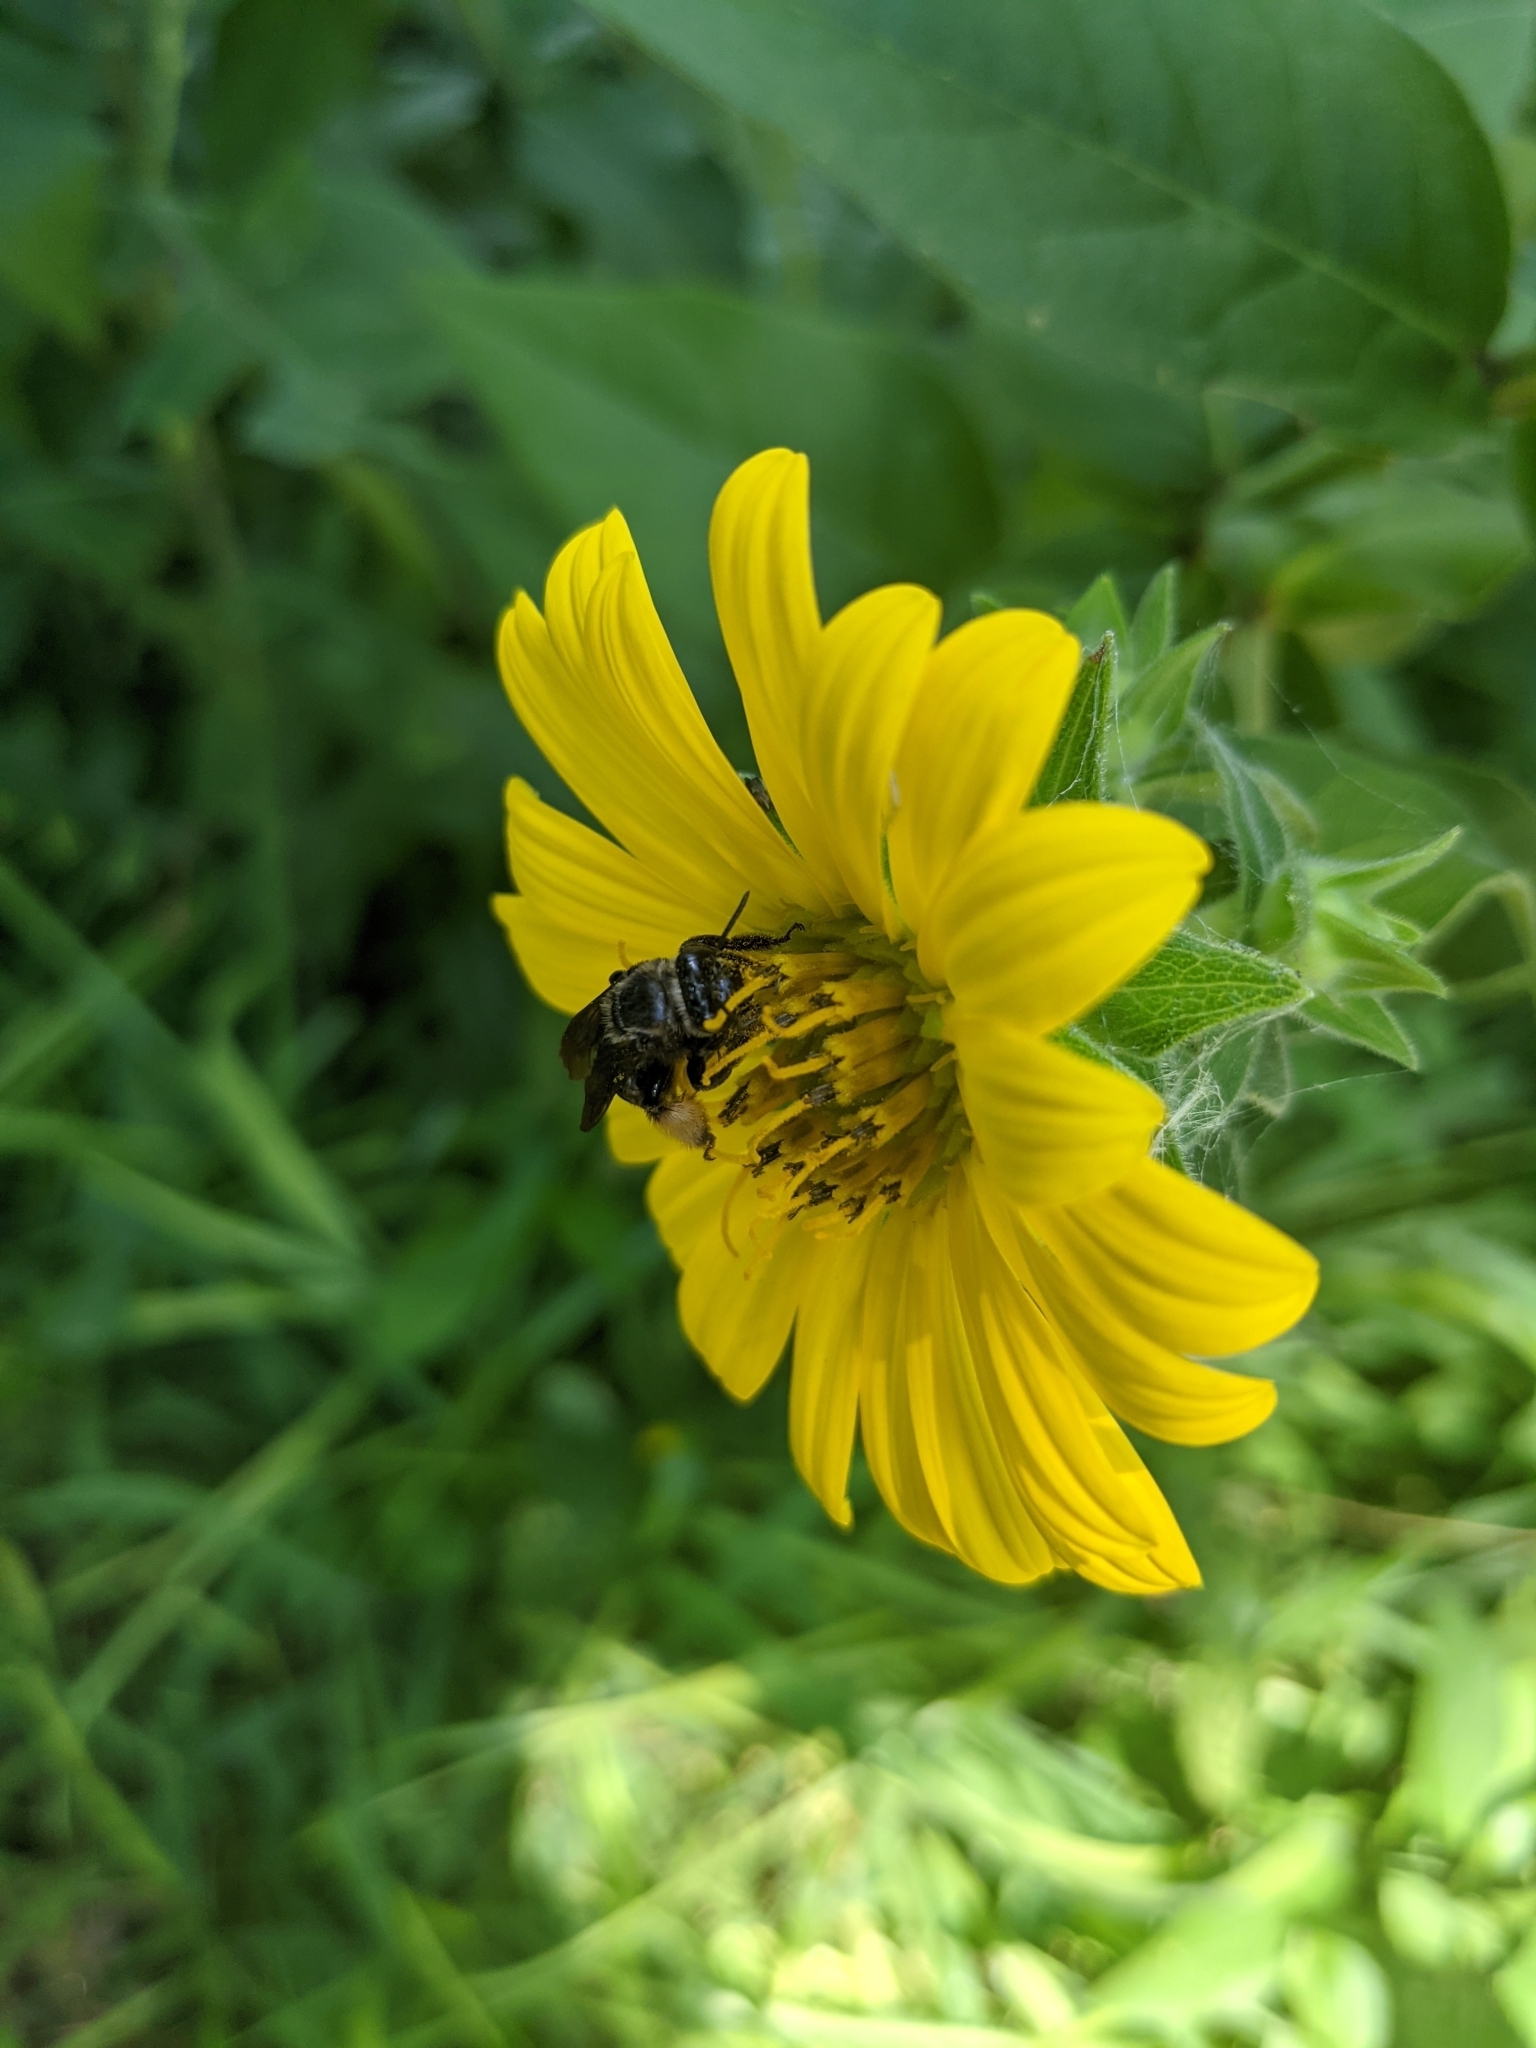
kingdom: Animalia
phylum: Arthropoda
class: Insecta
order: Hymenoptera
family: Apidae
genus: Melissodes
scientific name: Melissodes bimaculatus
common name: Two-spotted long-horned bee
